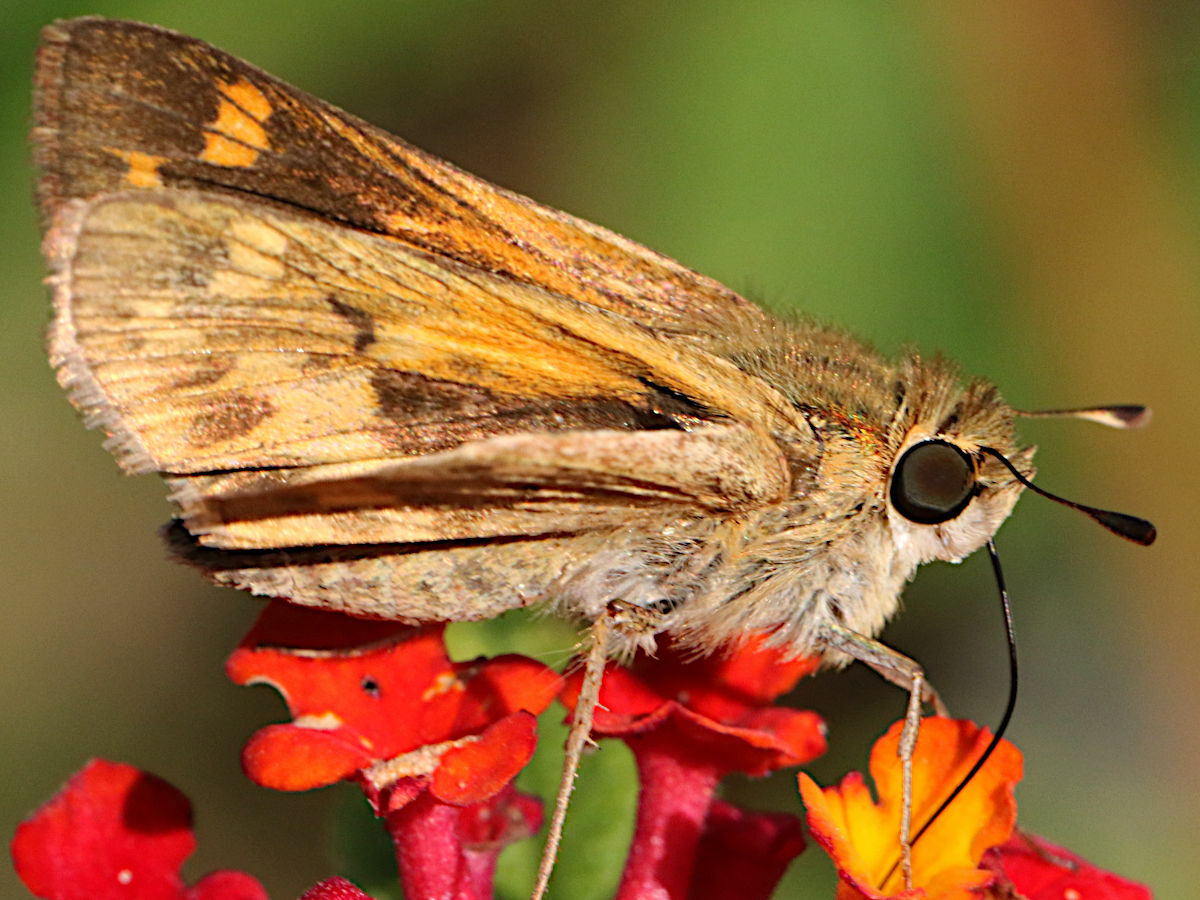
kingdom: Animalia
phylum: Arthropoda
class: Insecta
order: Lepidoptera
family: Hesperiidae
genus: Hylephila
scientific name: Hylephila phyleus
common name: Fiery skipper
